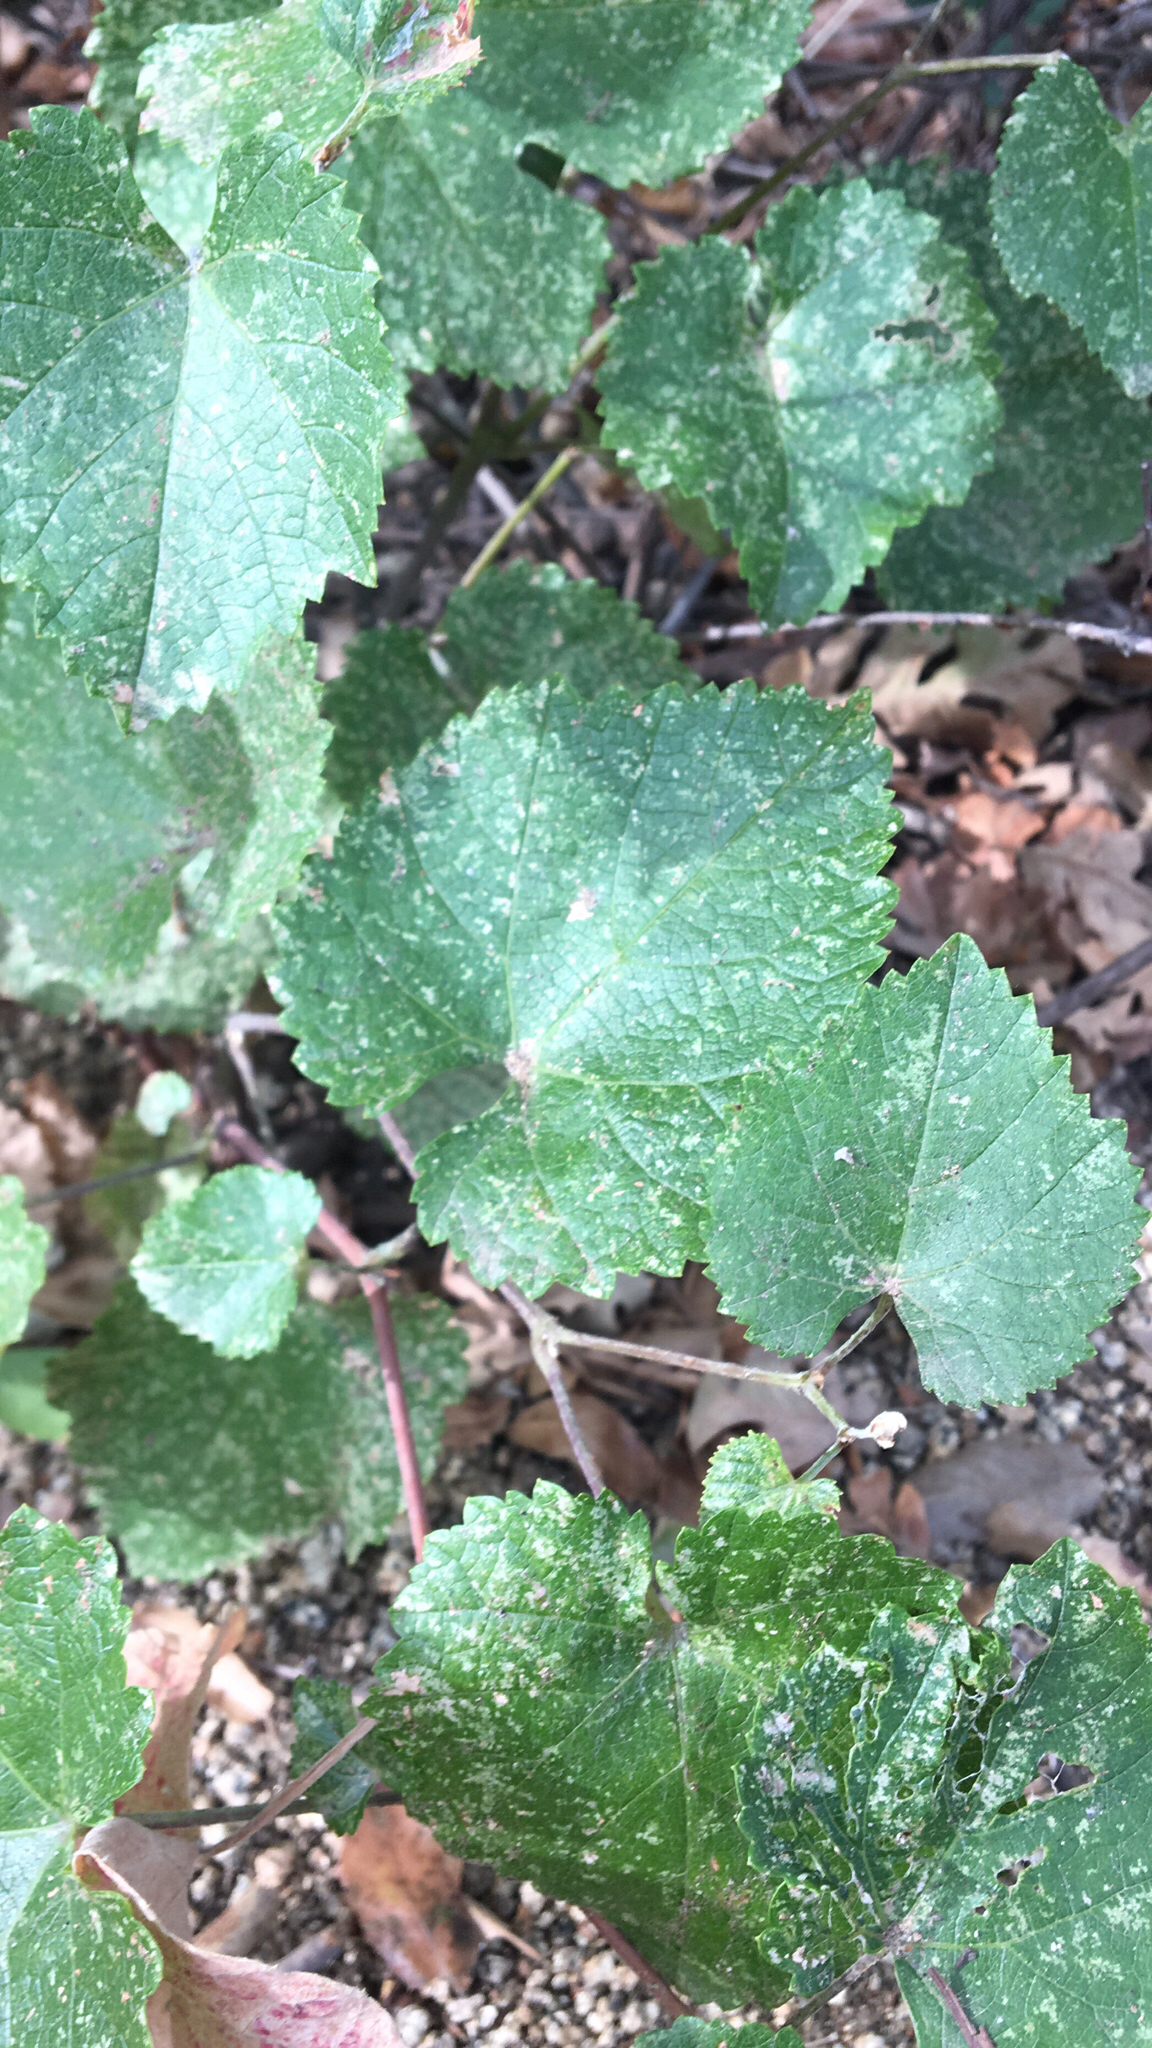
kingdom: Plantae
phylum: Tracheophyta
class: Magnoliopsida
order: Vitales
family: Vitaceae
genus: Vitis
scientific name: Vitis californica
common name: California wild grape
